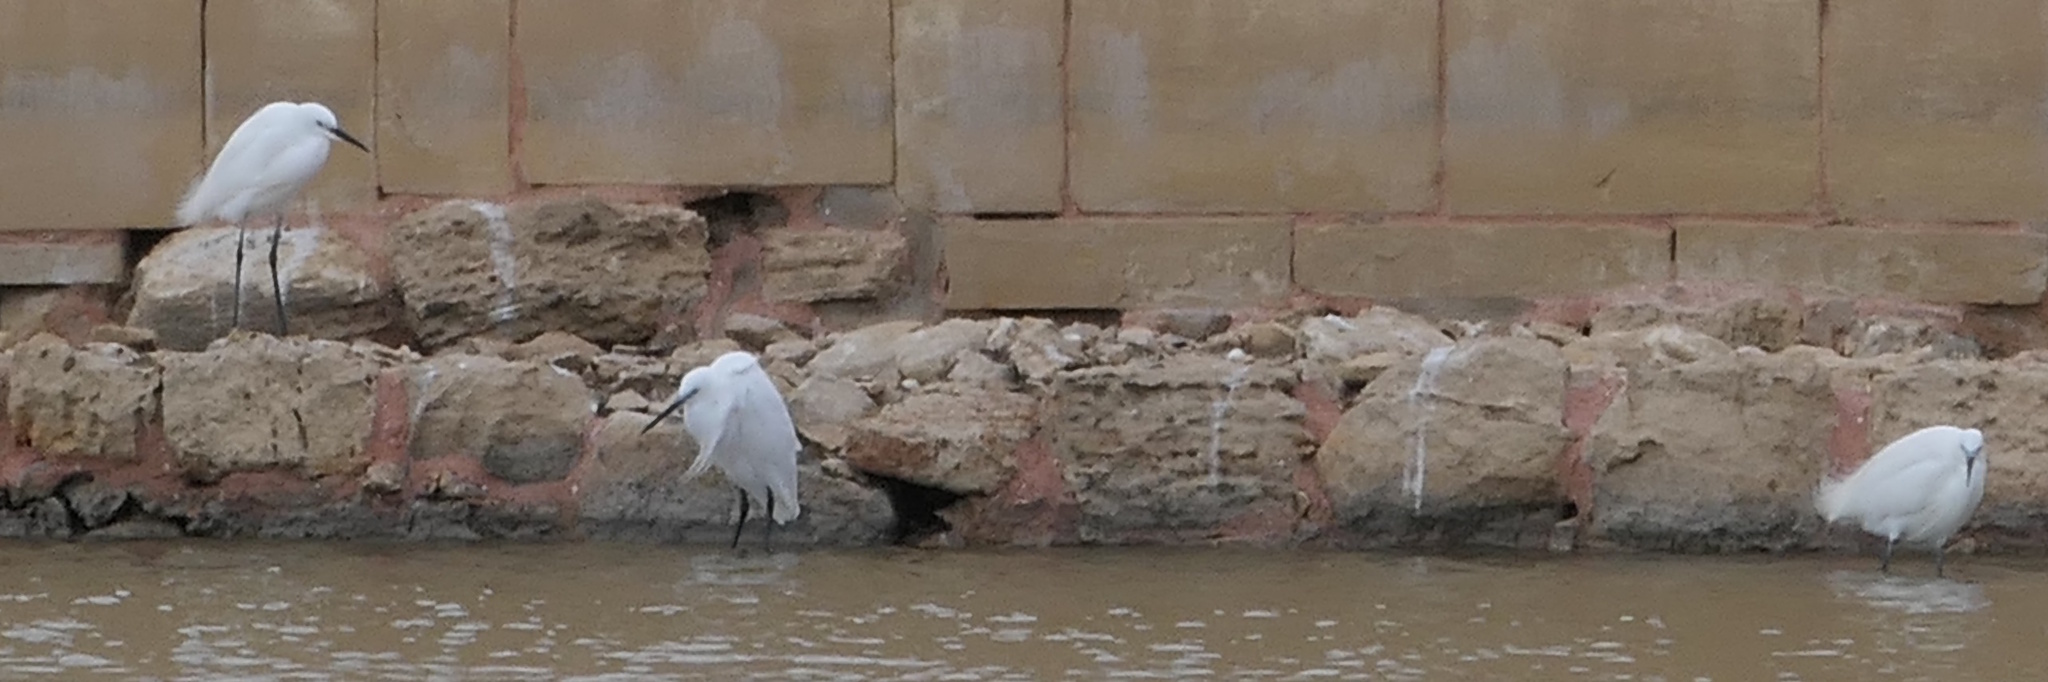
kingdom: Animalia
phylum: Chordata
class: Aves
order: Pelecaniformes
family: Ardeidae
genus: Egretta
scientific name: Egretta garzetta
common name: Little egret
